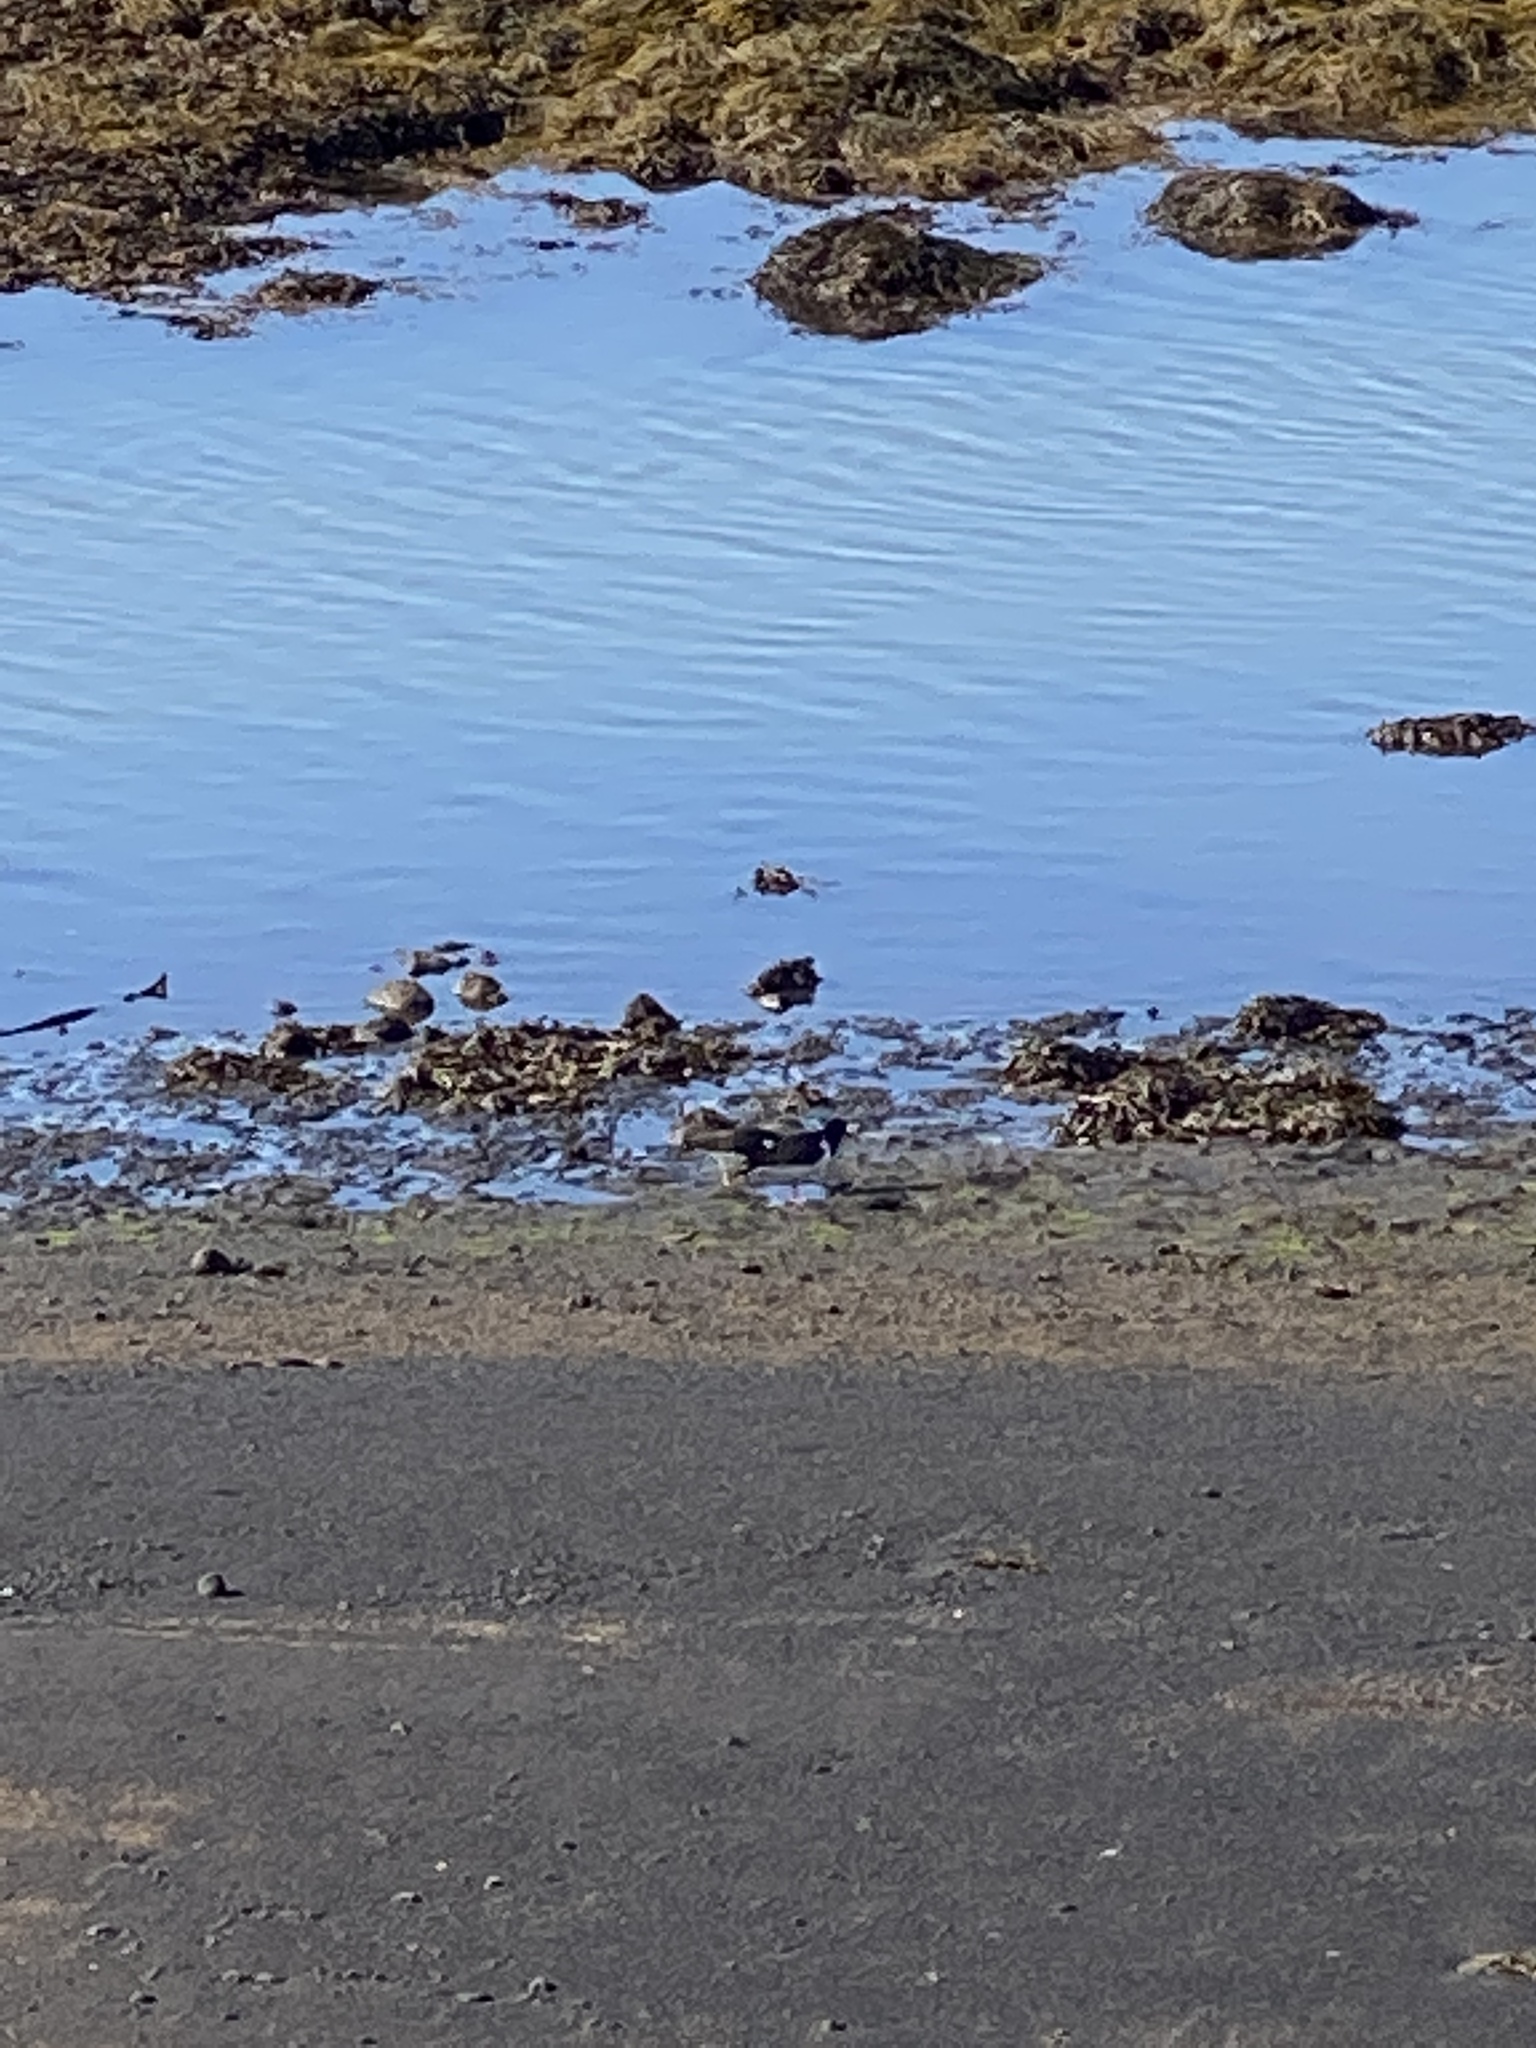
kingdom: Animalia
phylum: Chordata
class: Aves
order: Charadriiformes
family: Haematopodidae
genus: Haematopus
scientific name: Haematopus ostralegus
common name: Eurasian oystercatcher
